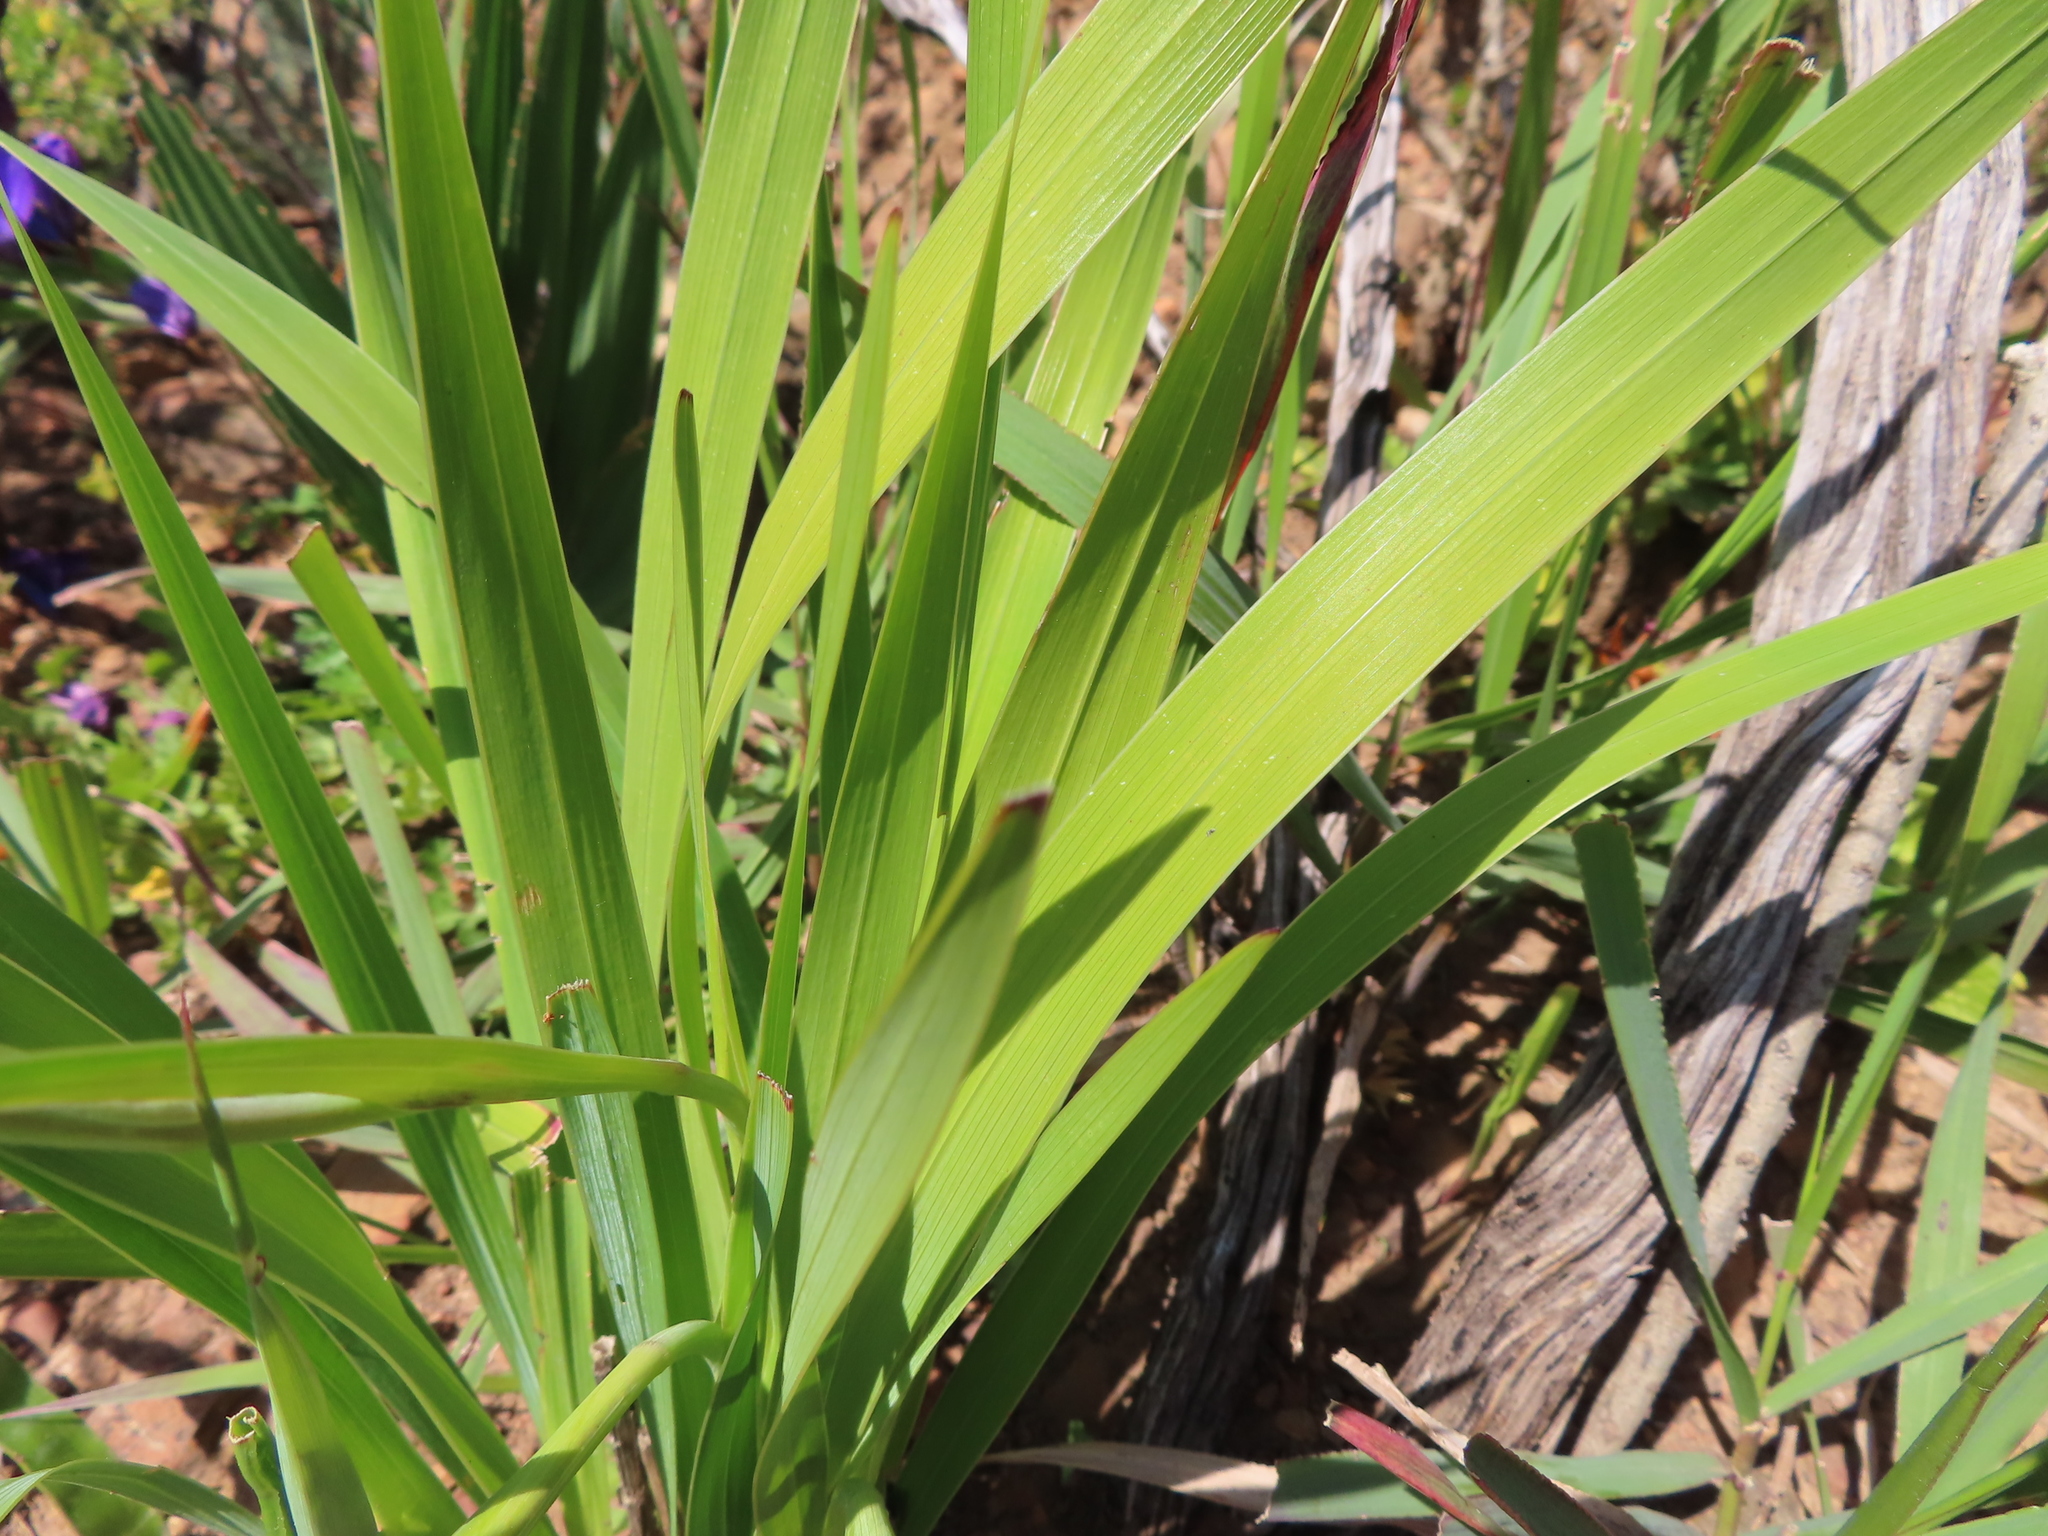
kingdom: Plantae
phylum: Tracheophyta
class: Liliopsida
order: Asparagales
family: Iridaceae
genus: Gladiolus
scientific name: Gladiolus carneus
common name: Painted-lady
